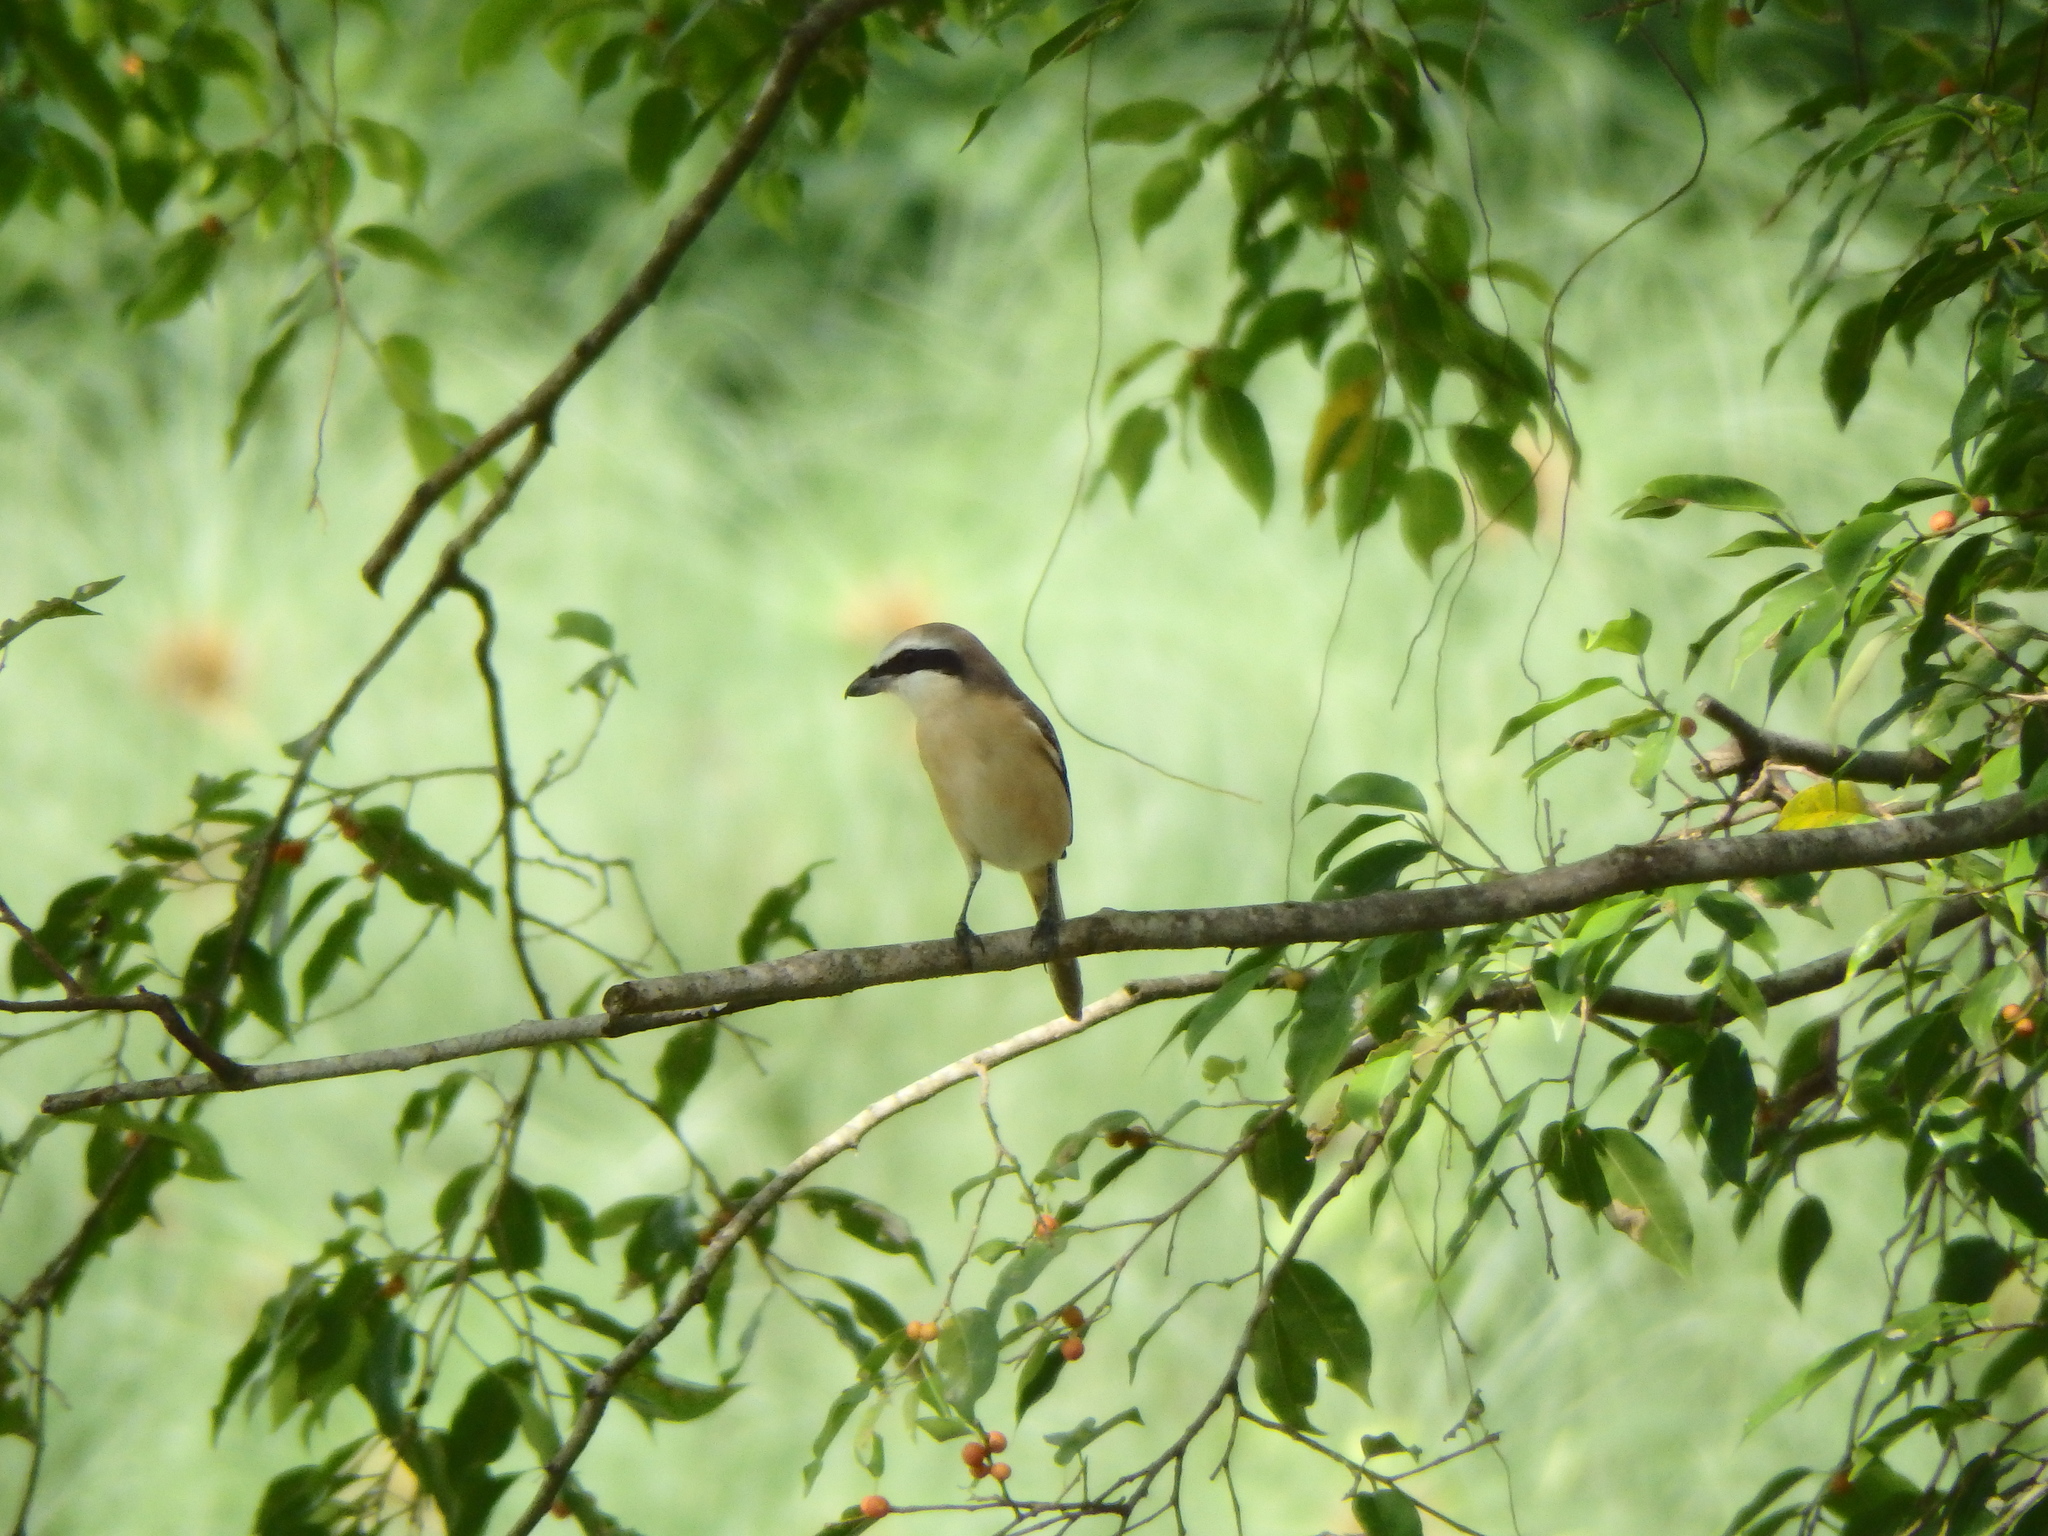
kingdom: Animalia
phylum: Chordata
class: Aves
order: Passeriformes
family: Laniidae
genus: Lanius
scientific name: Lanius cristatus
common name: Brown shrike
